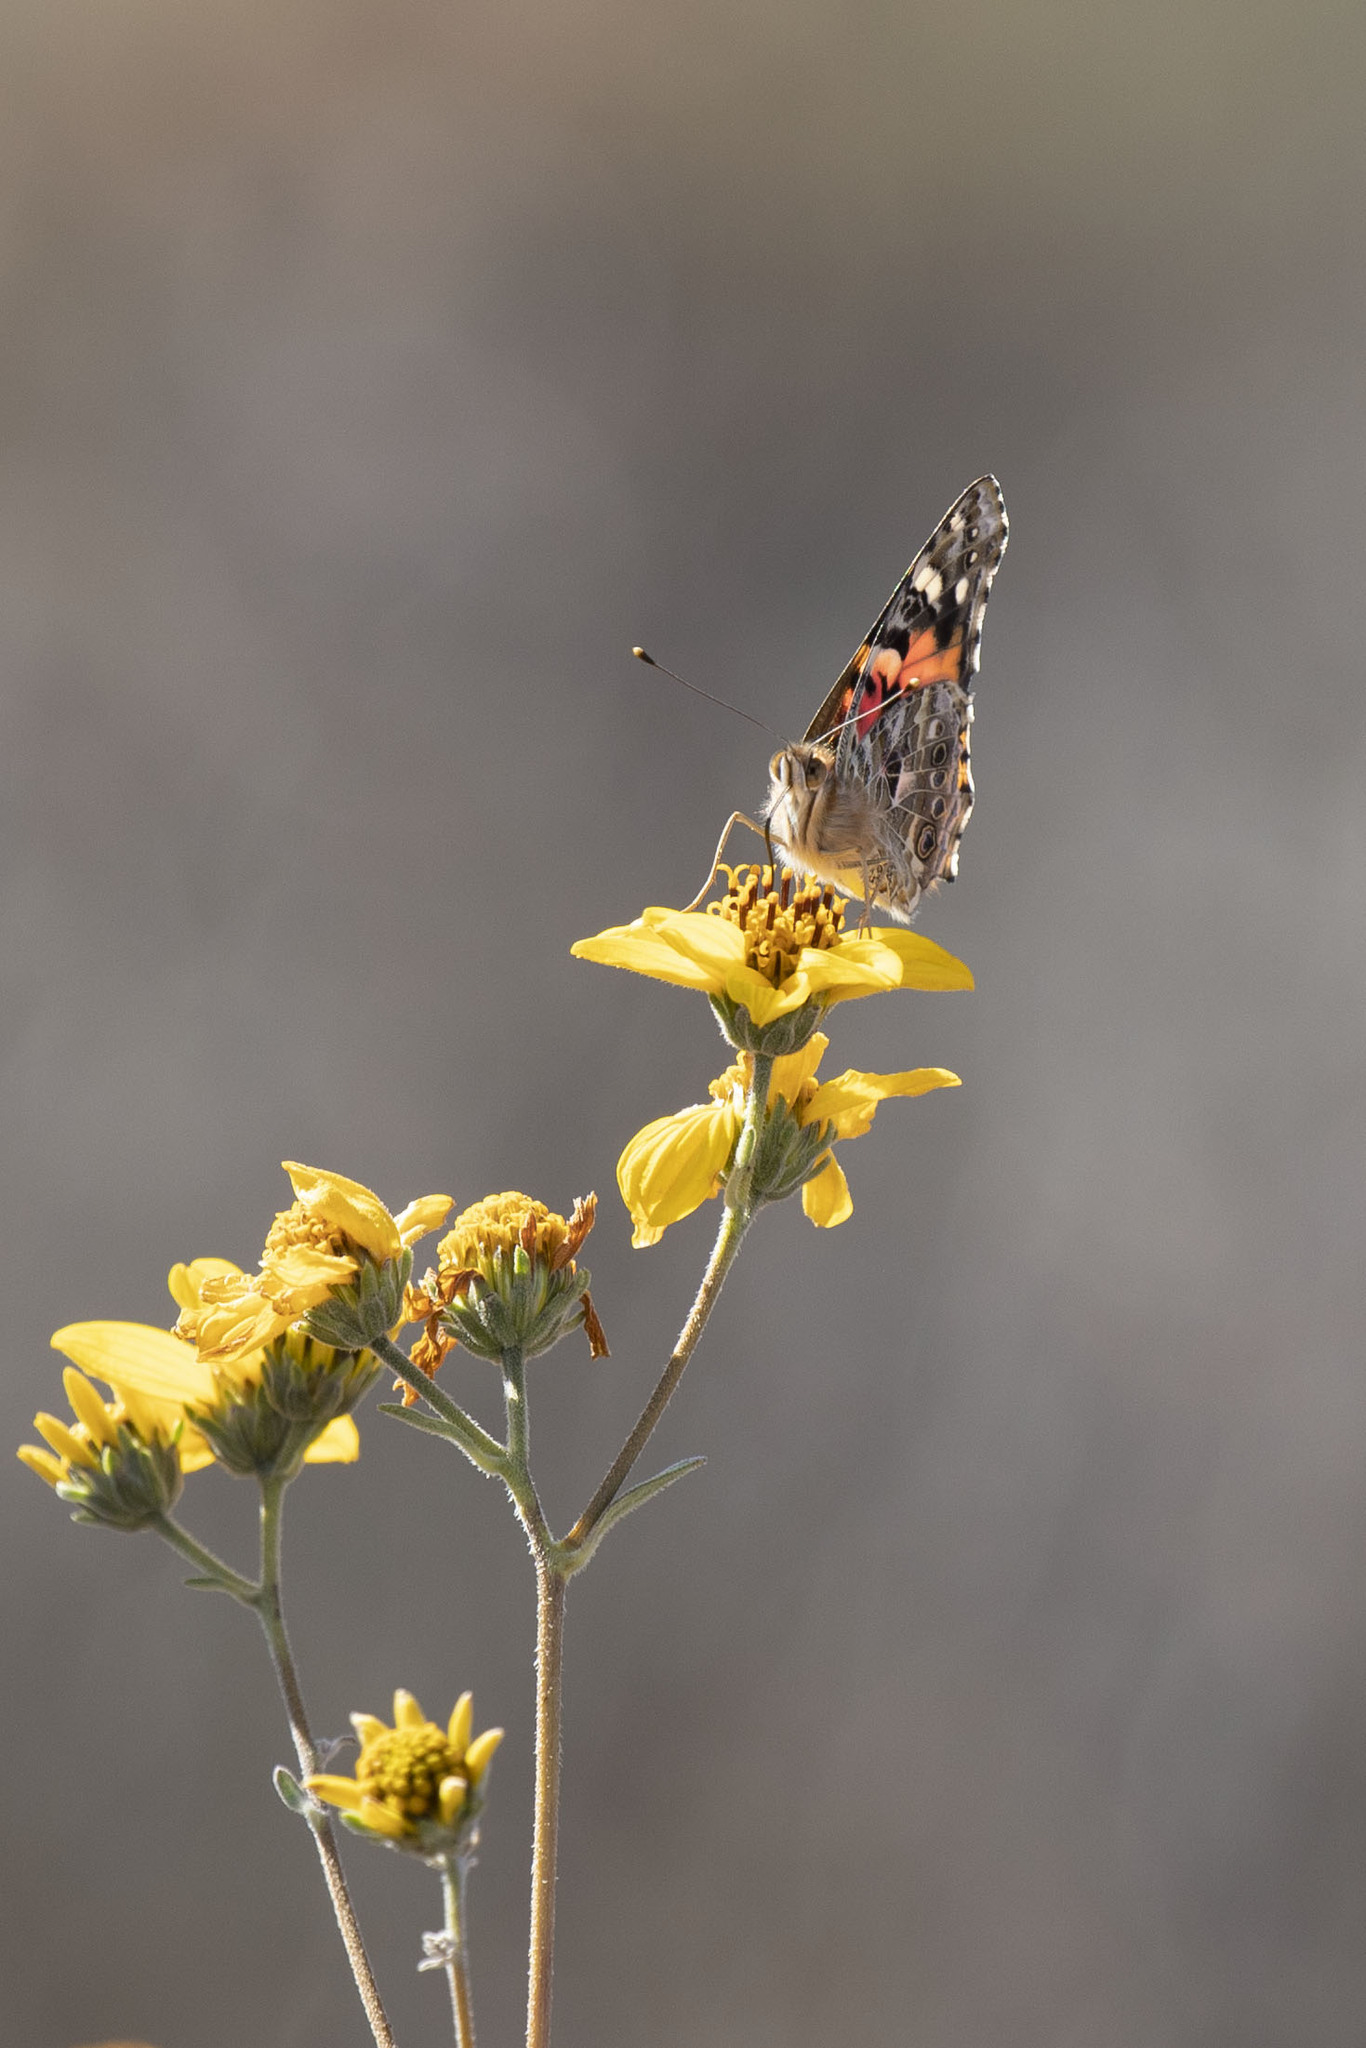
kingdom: Animalia
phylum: Arthropoda
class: Insecta
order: Lepidoptera
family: Nymphalidae
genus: Vanessa
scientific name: Vanessa cardui
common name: Painted lady
